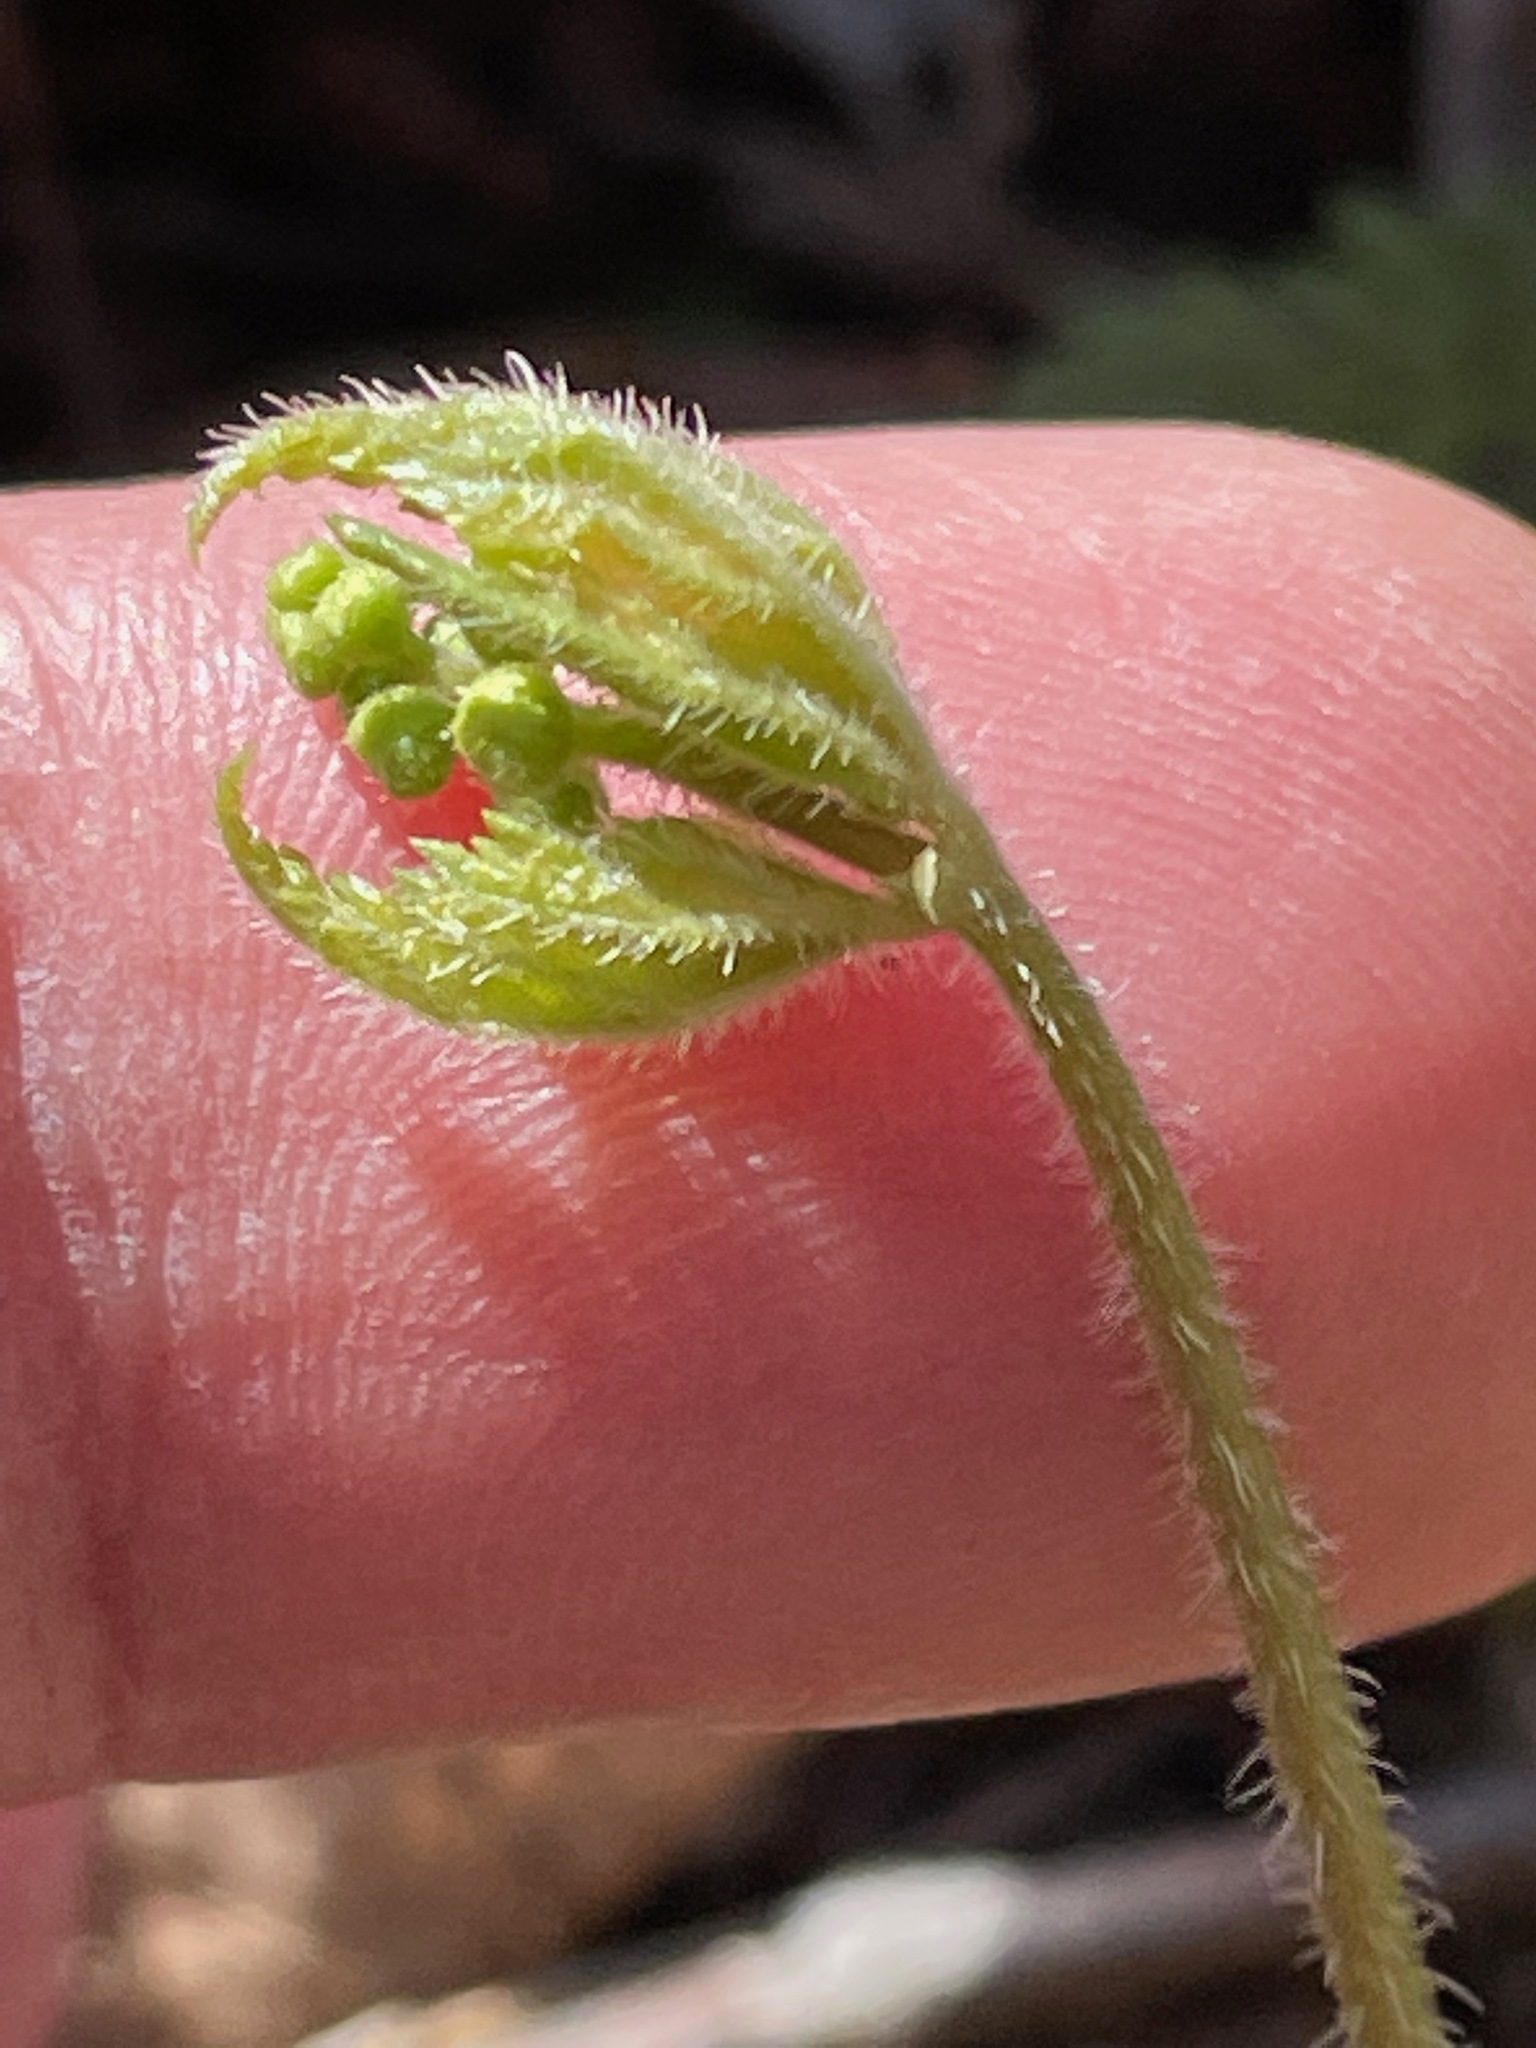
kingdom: Plantae
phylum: Tracheophyta
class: Magnoliopsida
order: Saxifragales
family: Saxifragaceae
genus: Mitella
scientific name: Mitella diphylla
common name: Coolwort
